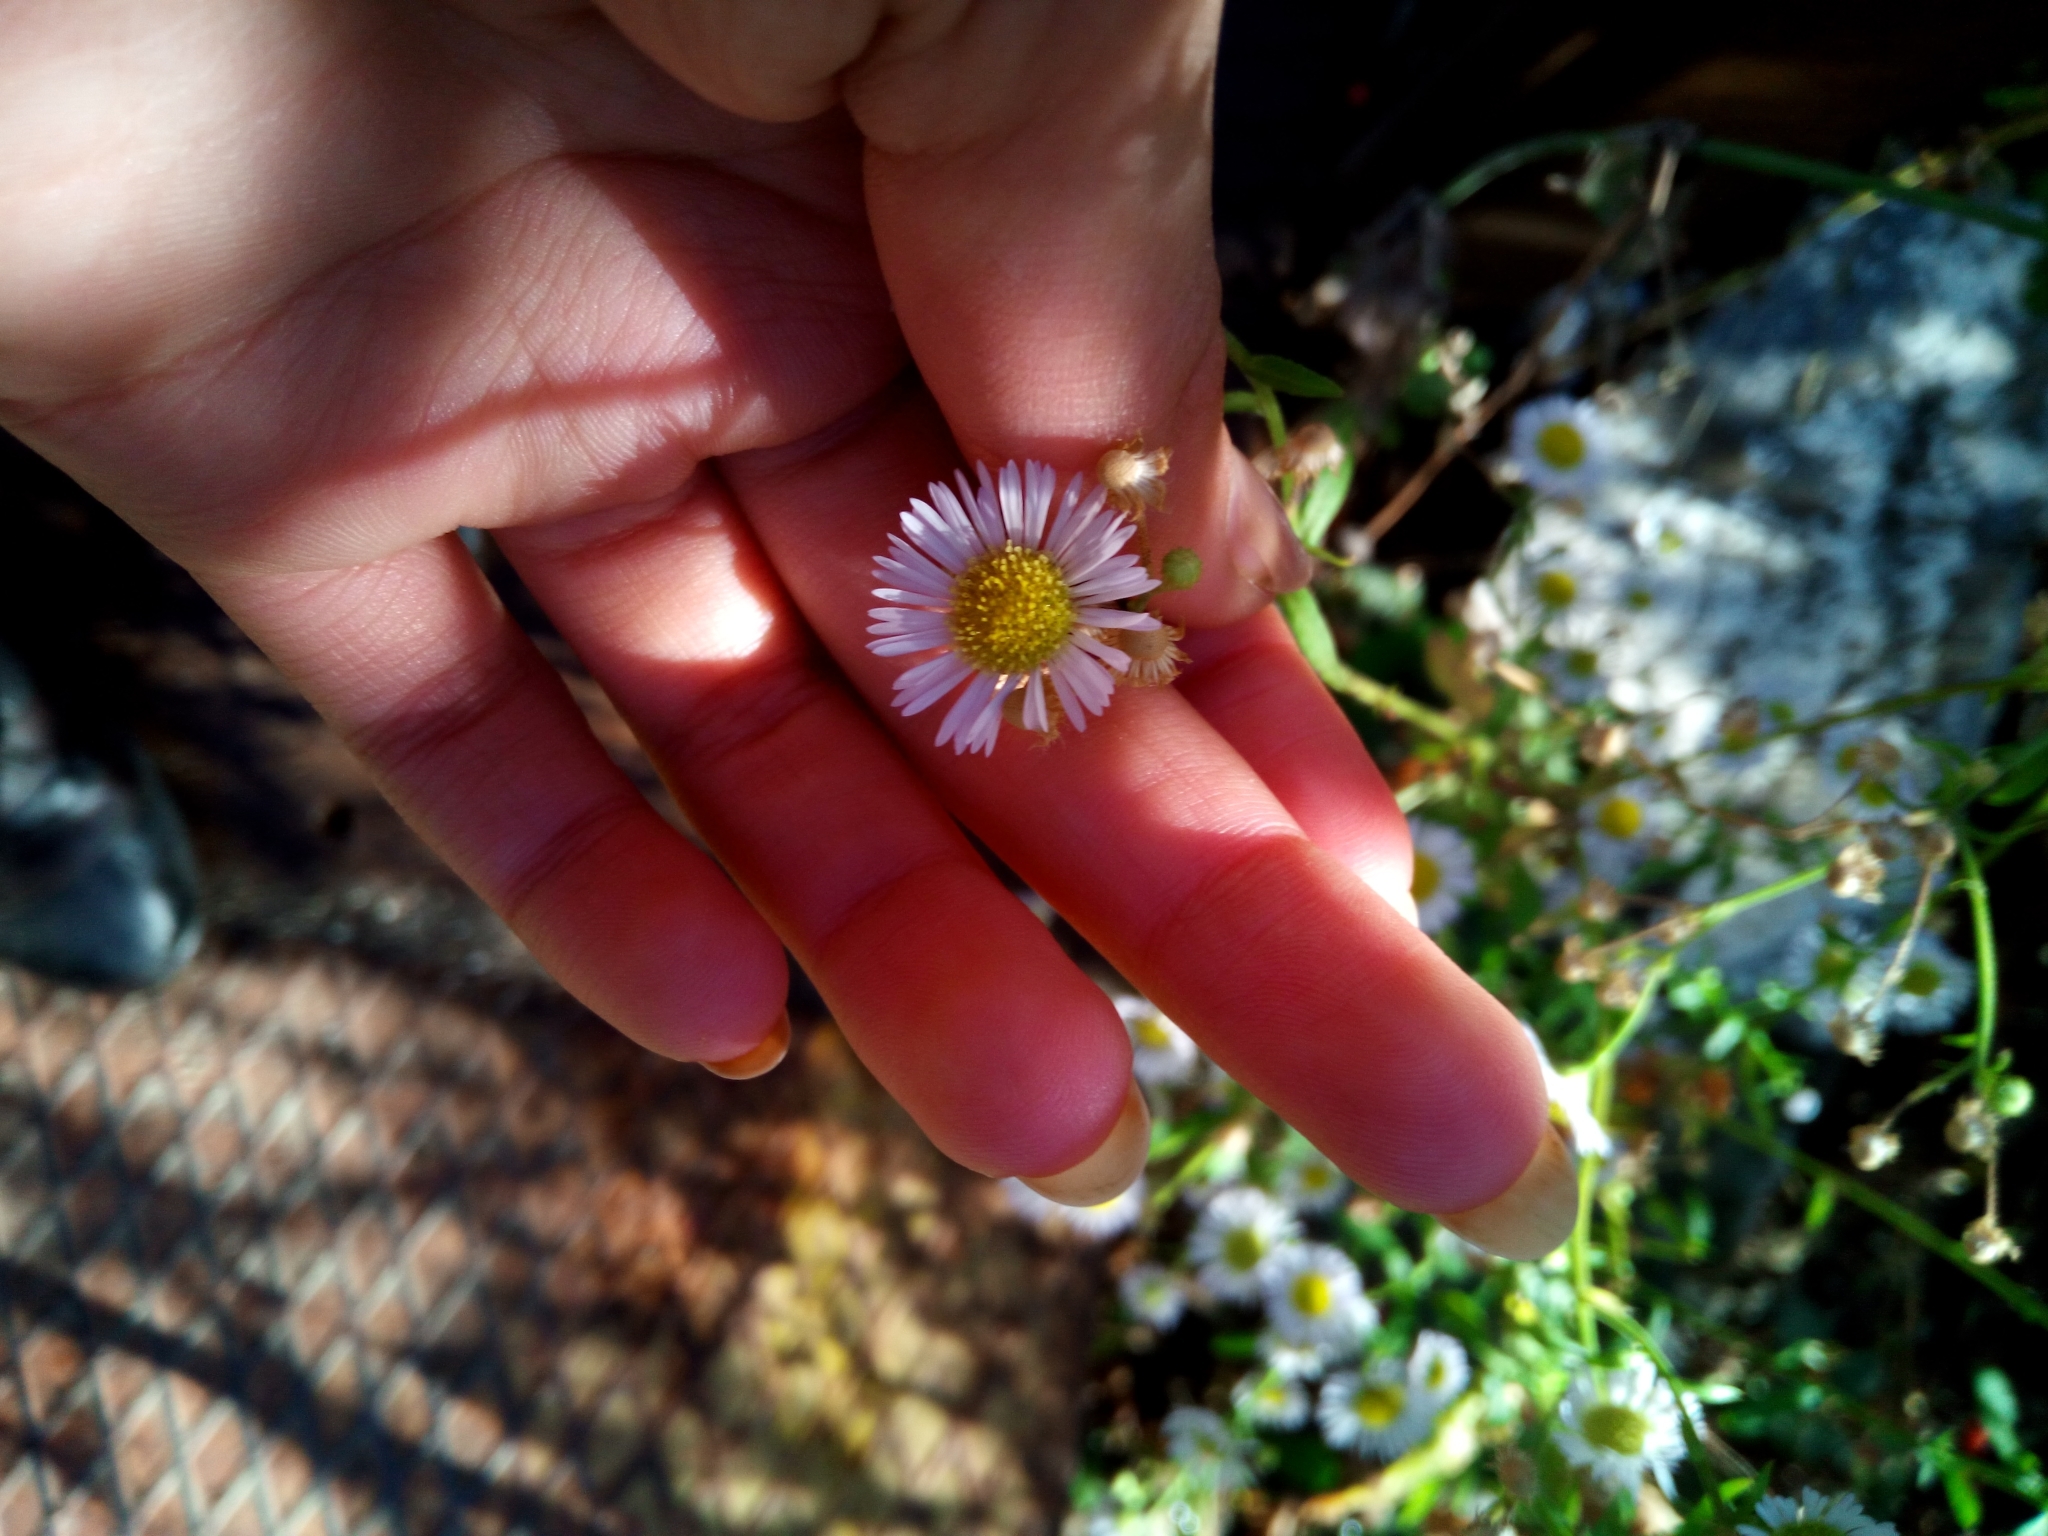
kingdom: Plantae
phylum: Tracheophyta
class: Magnoliopsida
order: Asterales
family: Asteraceae
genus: Erigeron
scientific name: Erigeron annuus
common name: Tall fleabane
